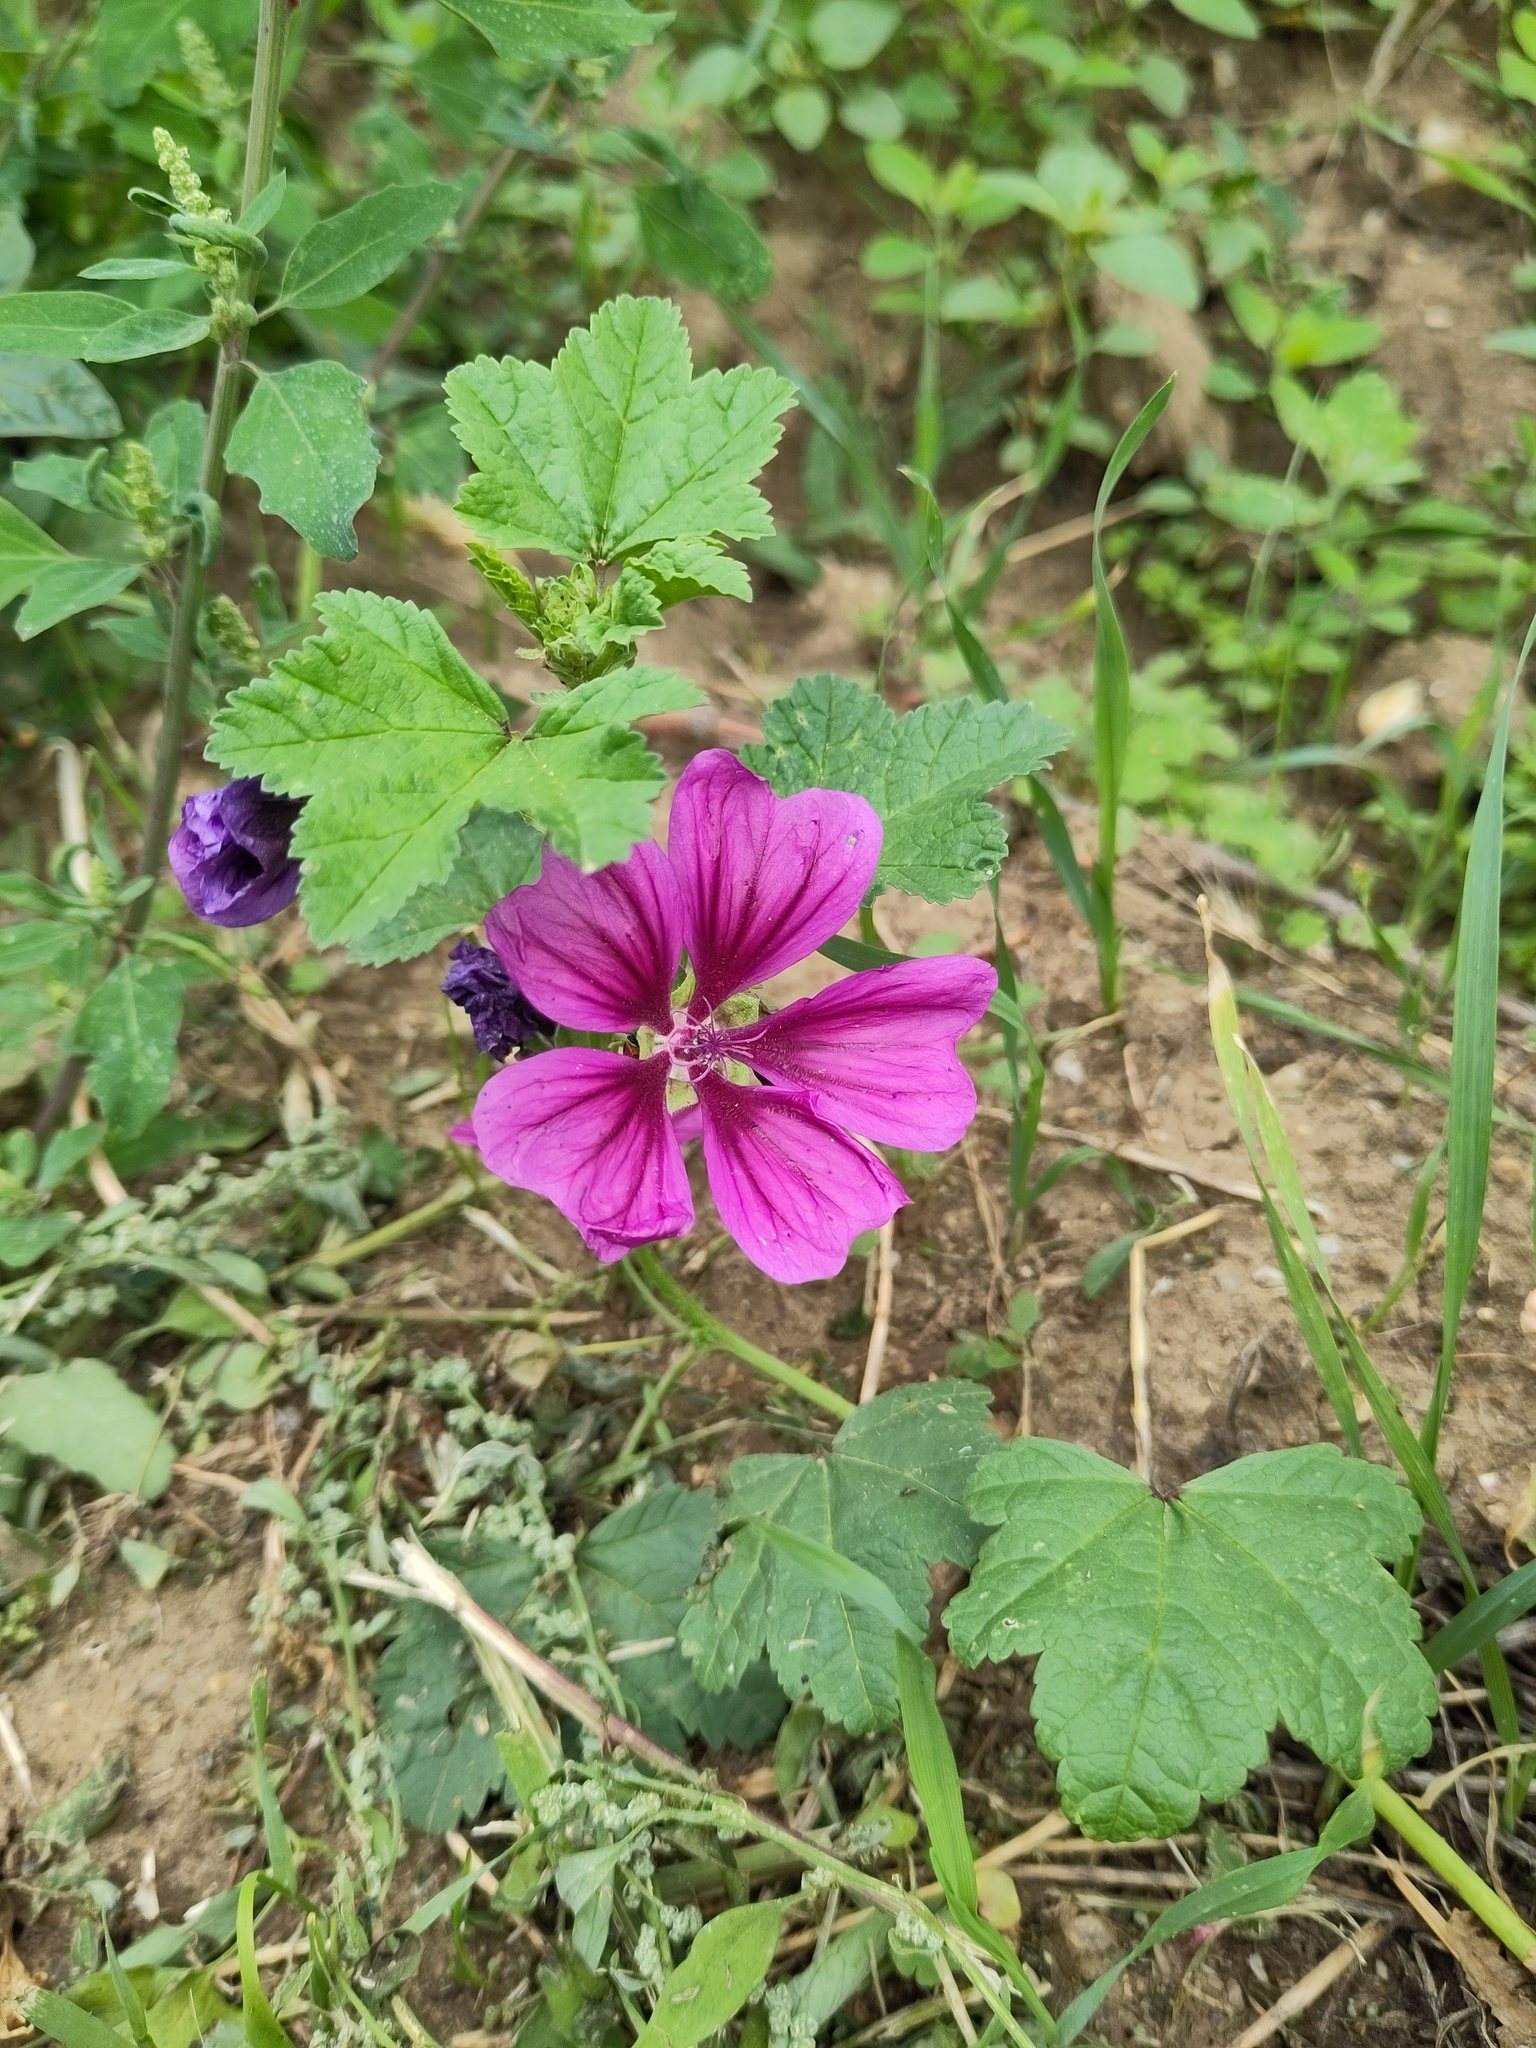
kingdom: Plantae
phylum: Tracheophyta
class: Magnoliopsida
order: Malvales
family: Malvaceae
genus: Malva
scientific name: Malva sylvestris
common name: Common mallow
